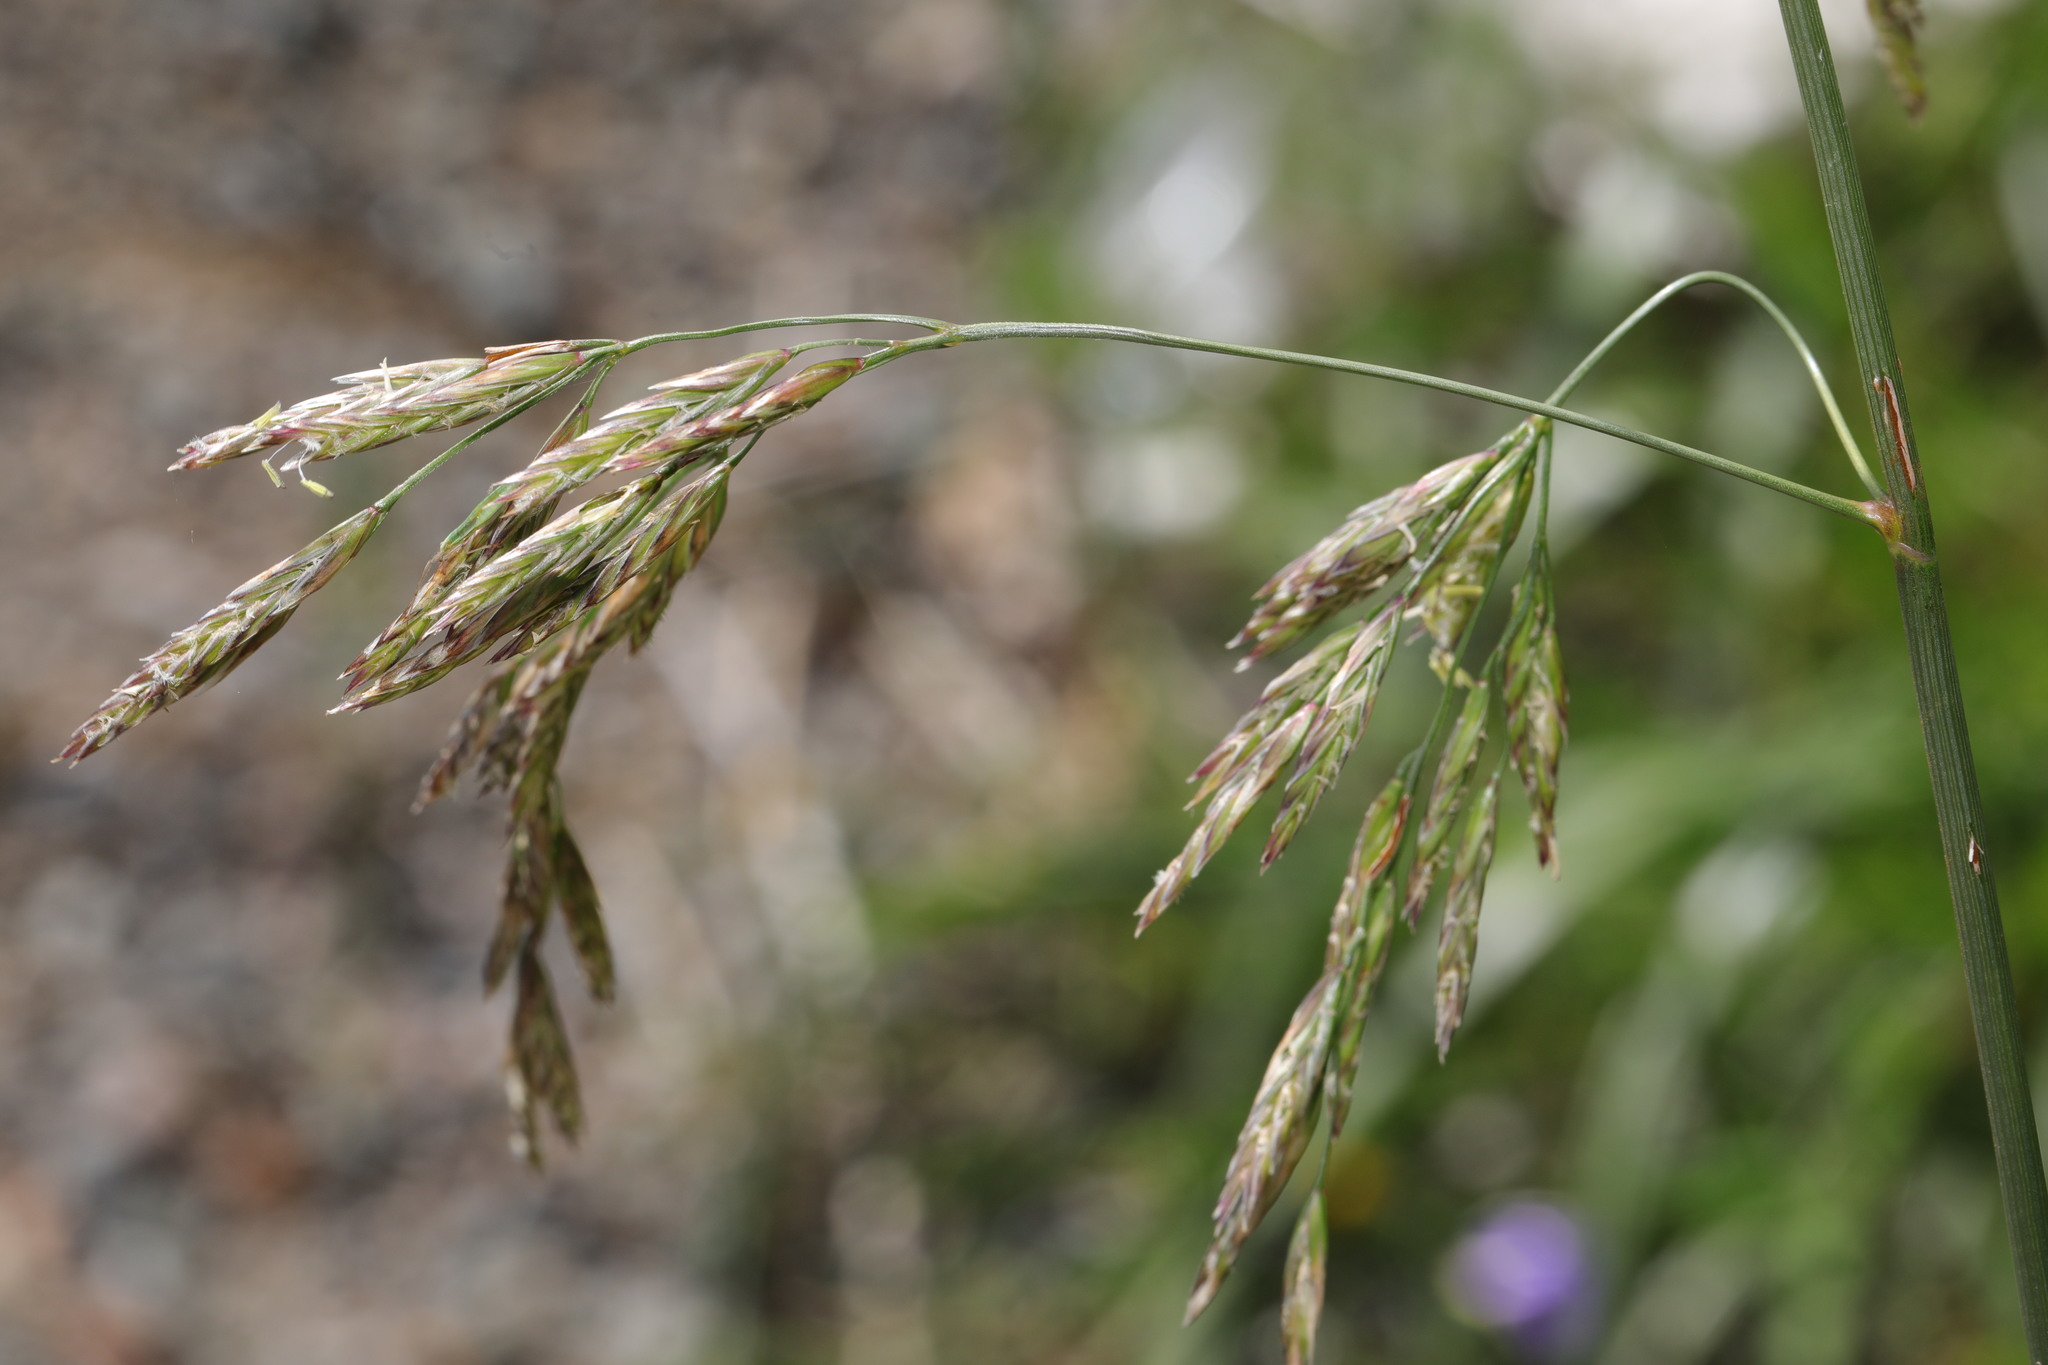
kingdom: Plantae
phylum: Tracheophyta
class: Liliopsida
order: Poales
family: Poaceae
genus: Lolium
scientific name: Lolium arundinaceum
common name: Reed fescue
